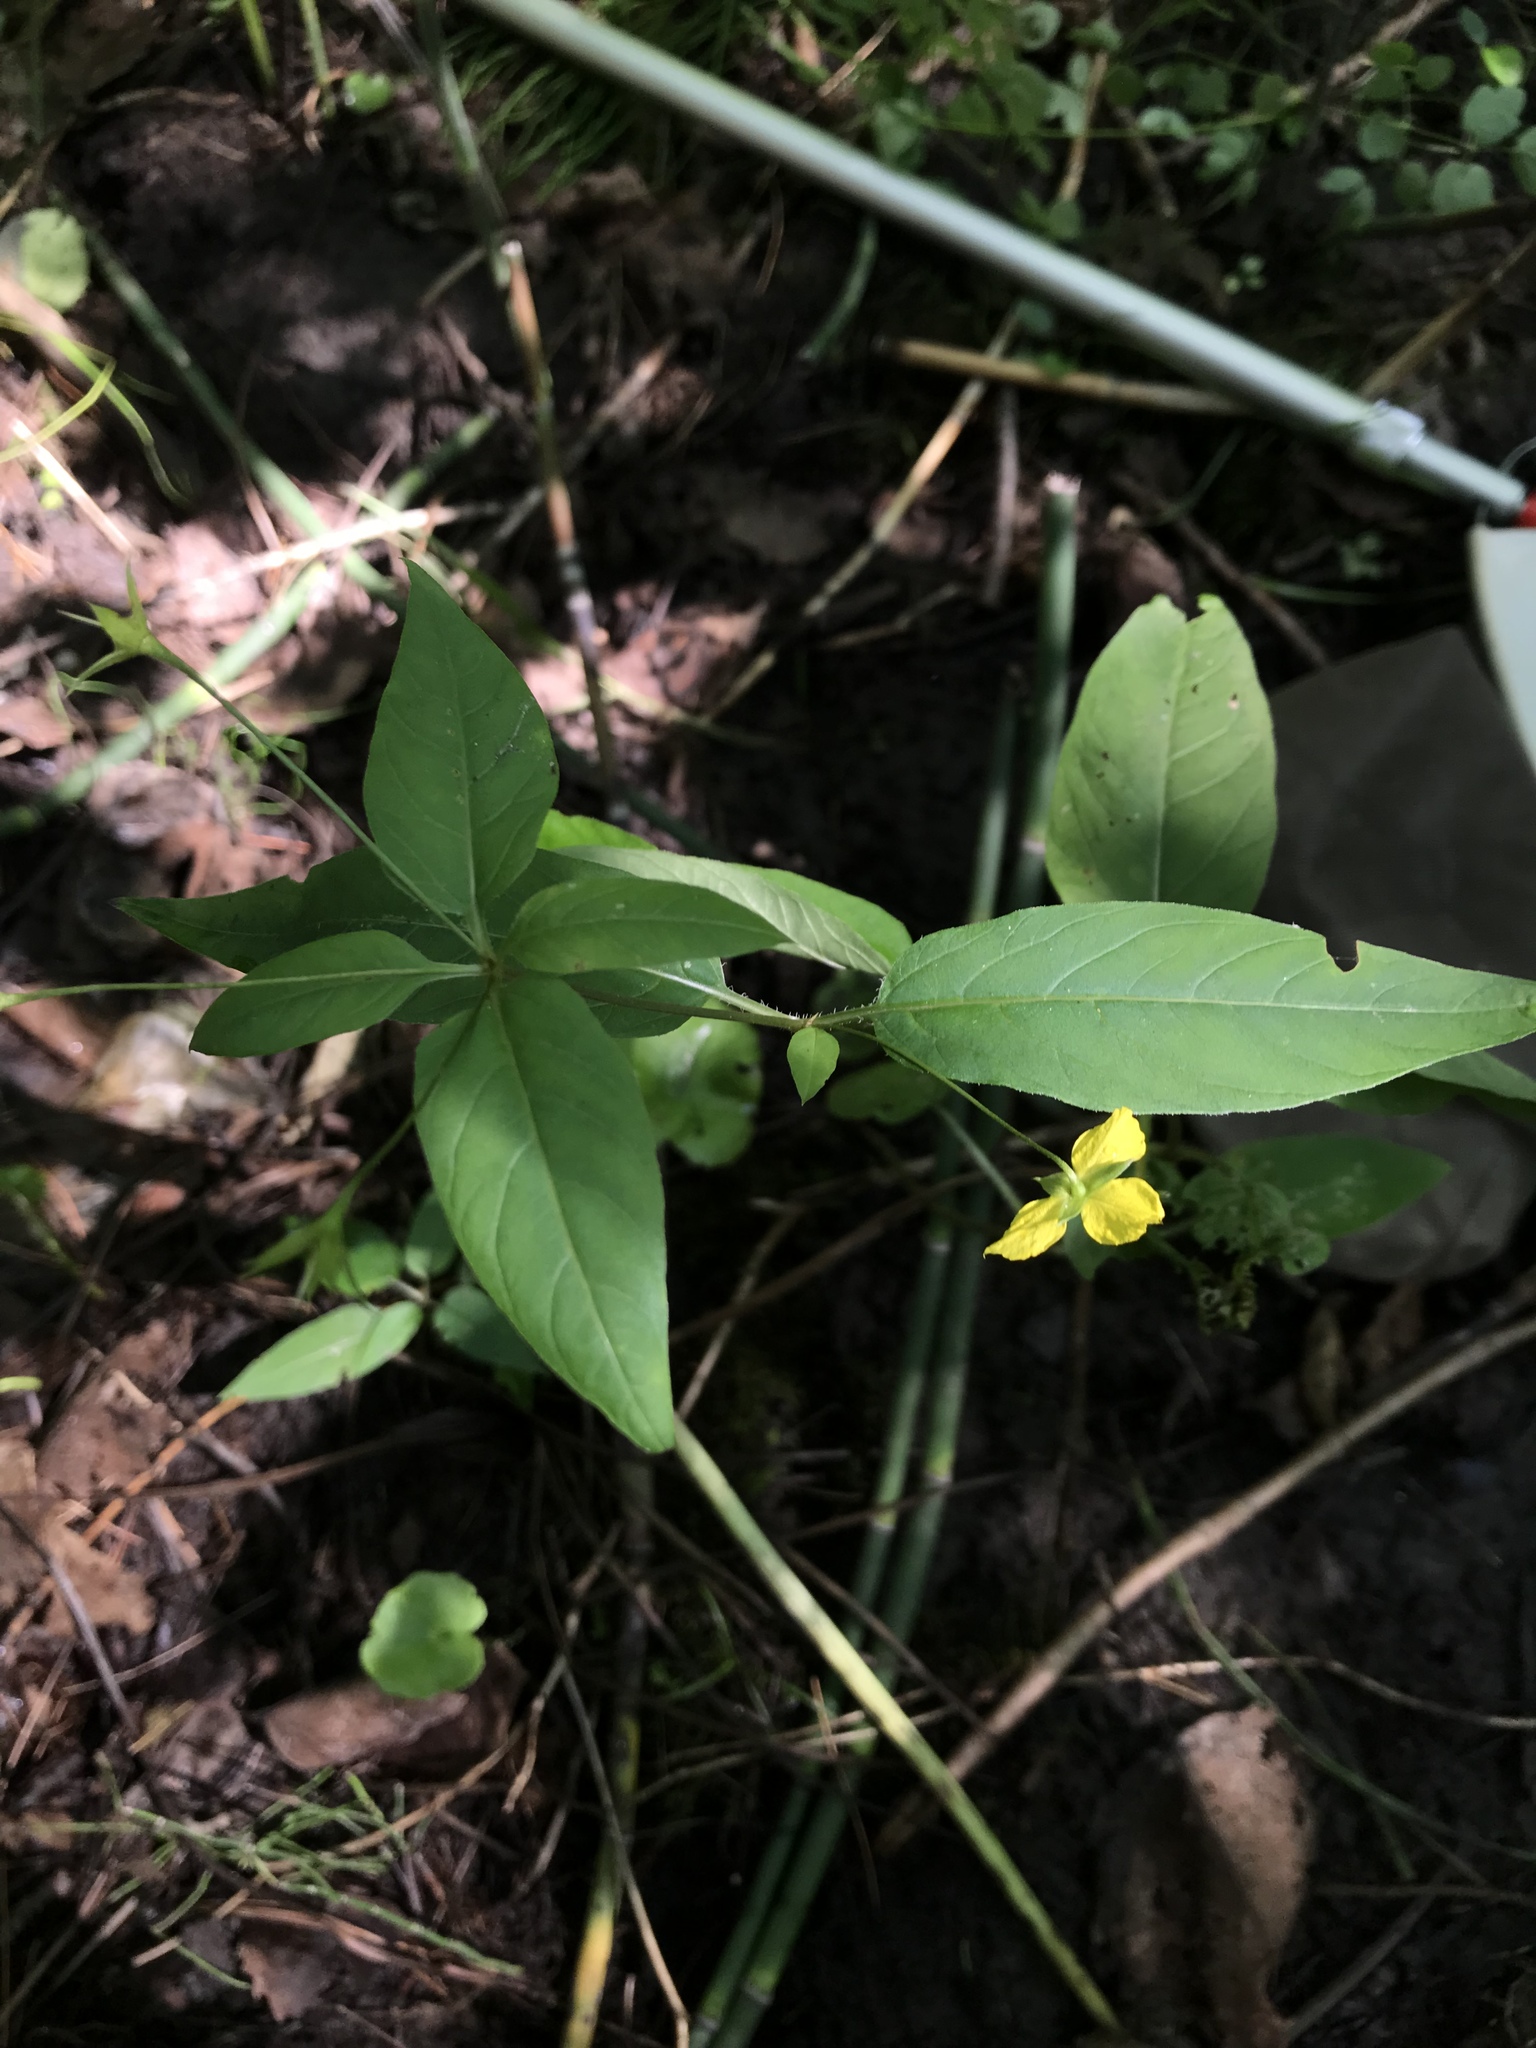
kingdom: Plantae
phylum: Tracheophyta
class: Magnoliopsida
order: Ericales
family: Primulaceae
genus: Lysimachia
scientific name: Lysimachia ciliata
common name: Fringed loosestrife
